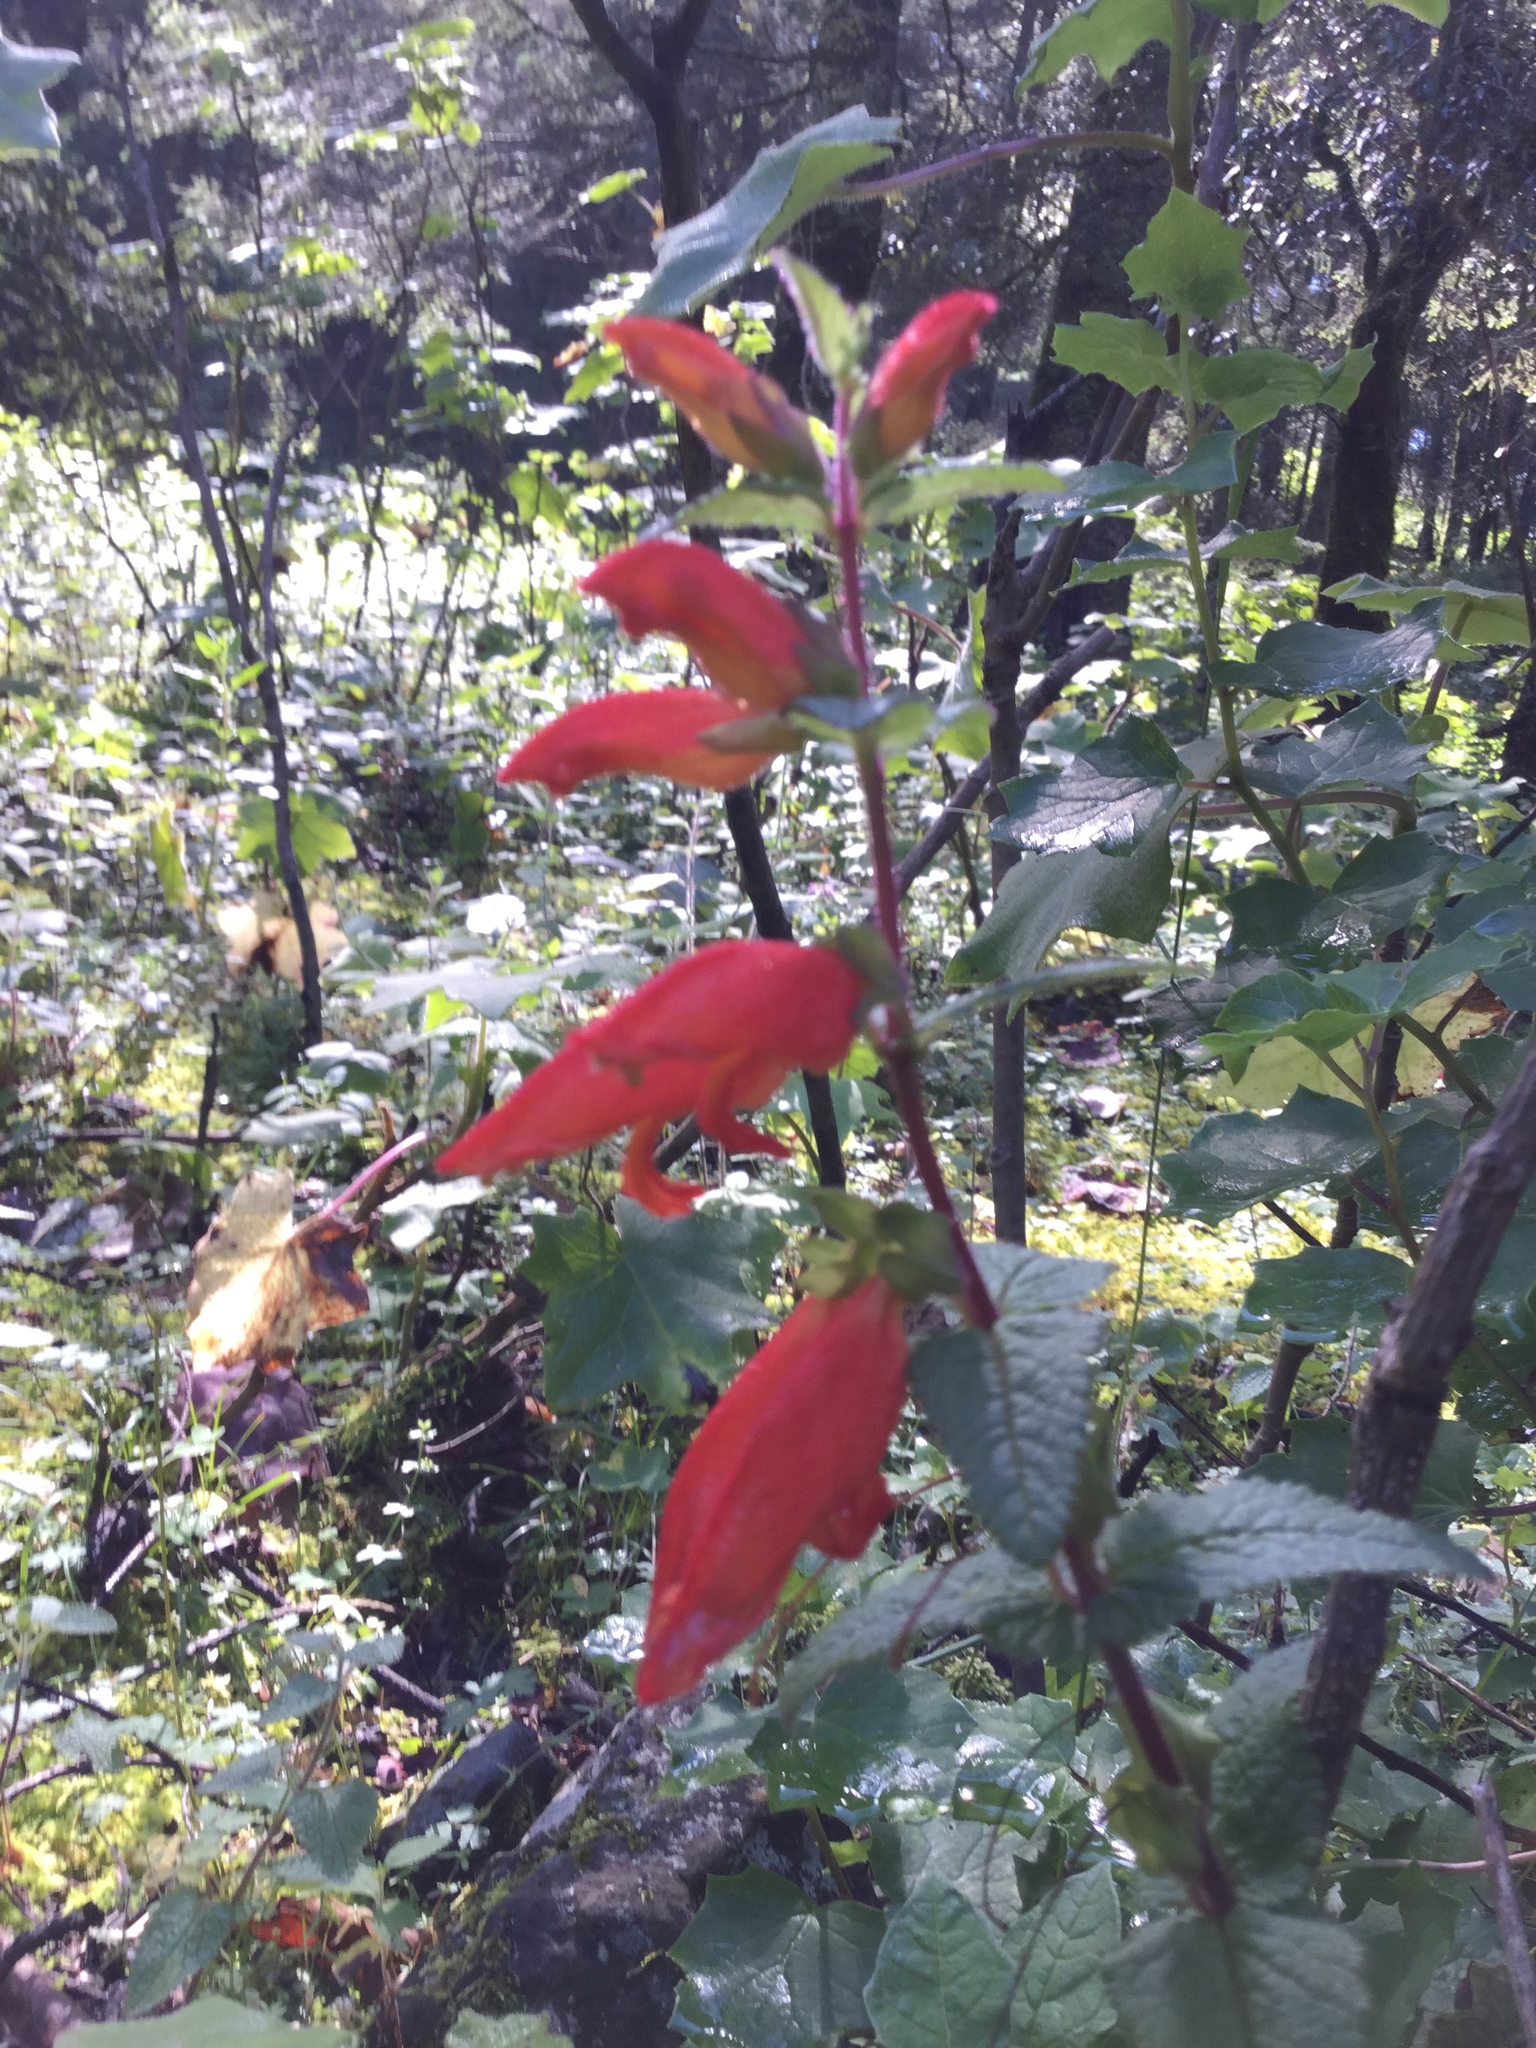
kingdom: Plantae
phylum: Tracheophyta
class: Magnoliopsida
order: Lamiales
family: Orobanchaceae
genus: Lamourouxia
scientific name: Lamourouxia macrantha
